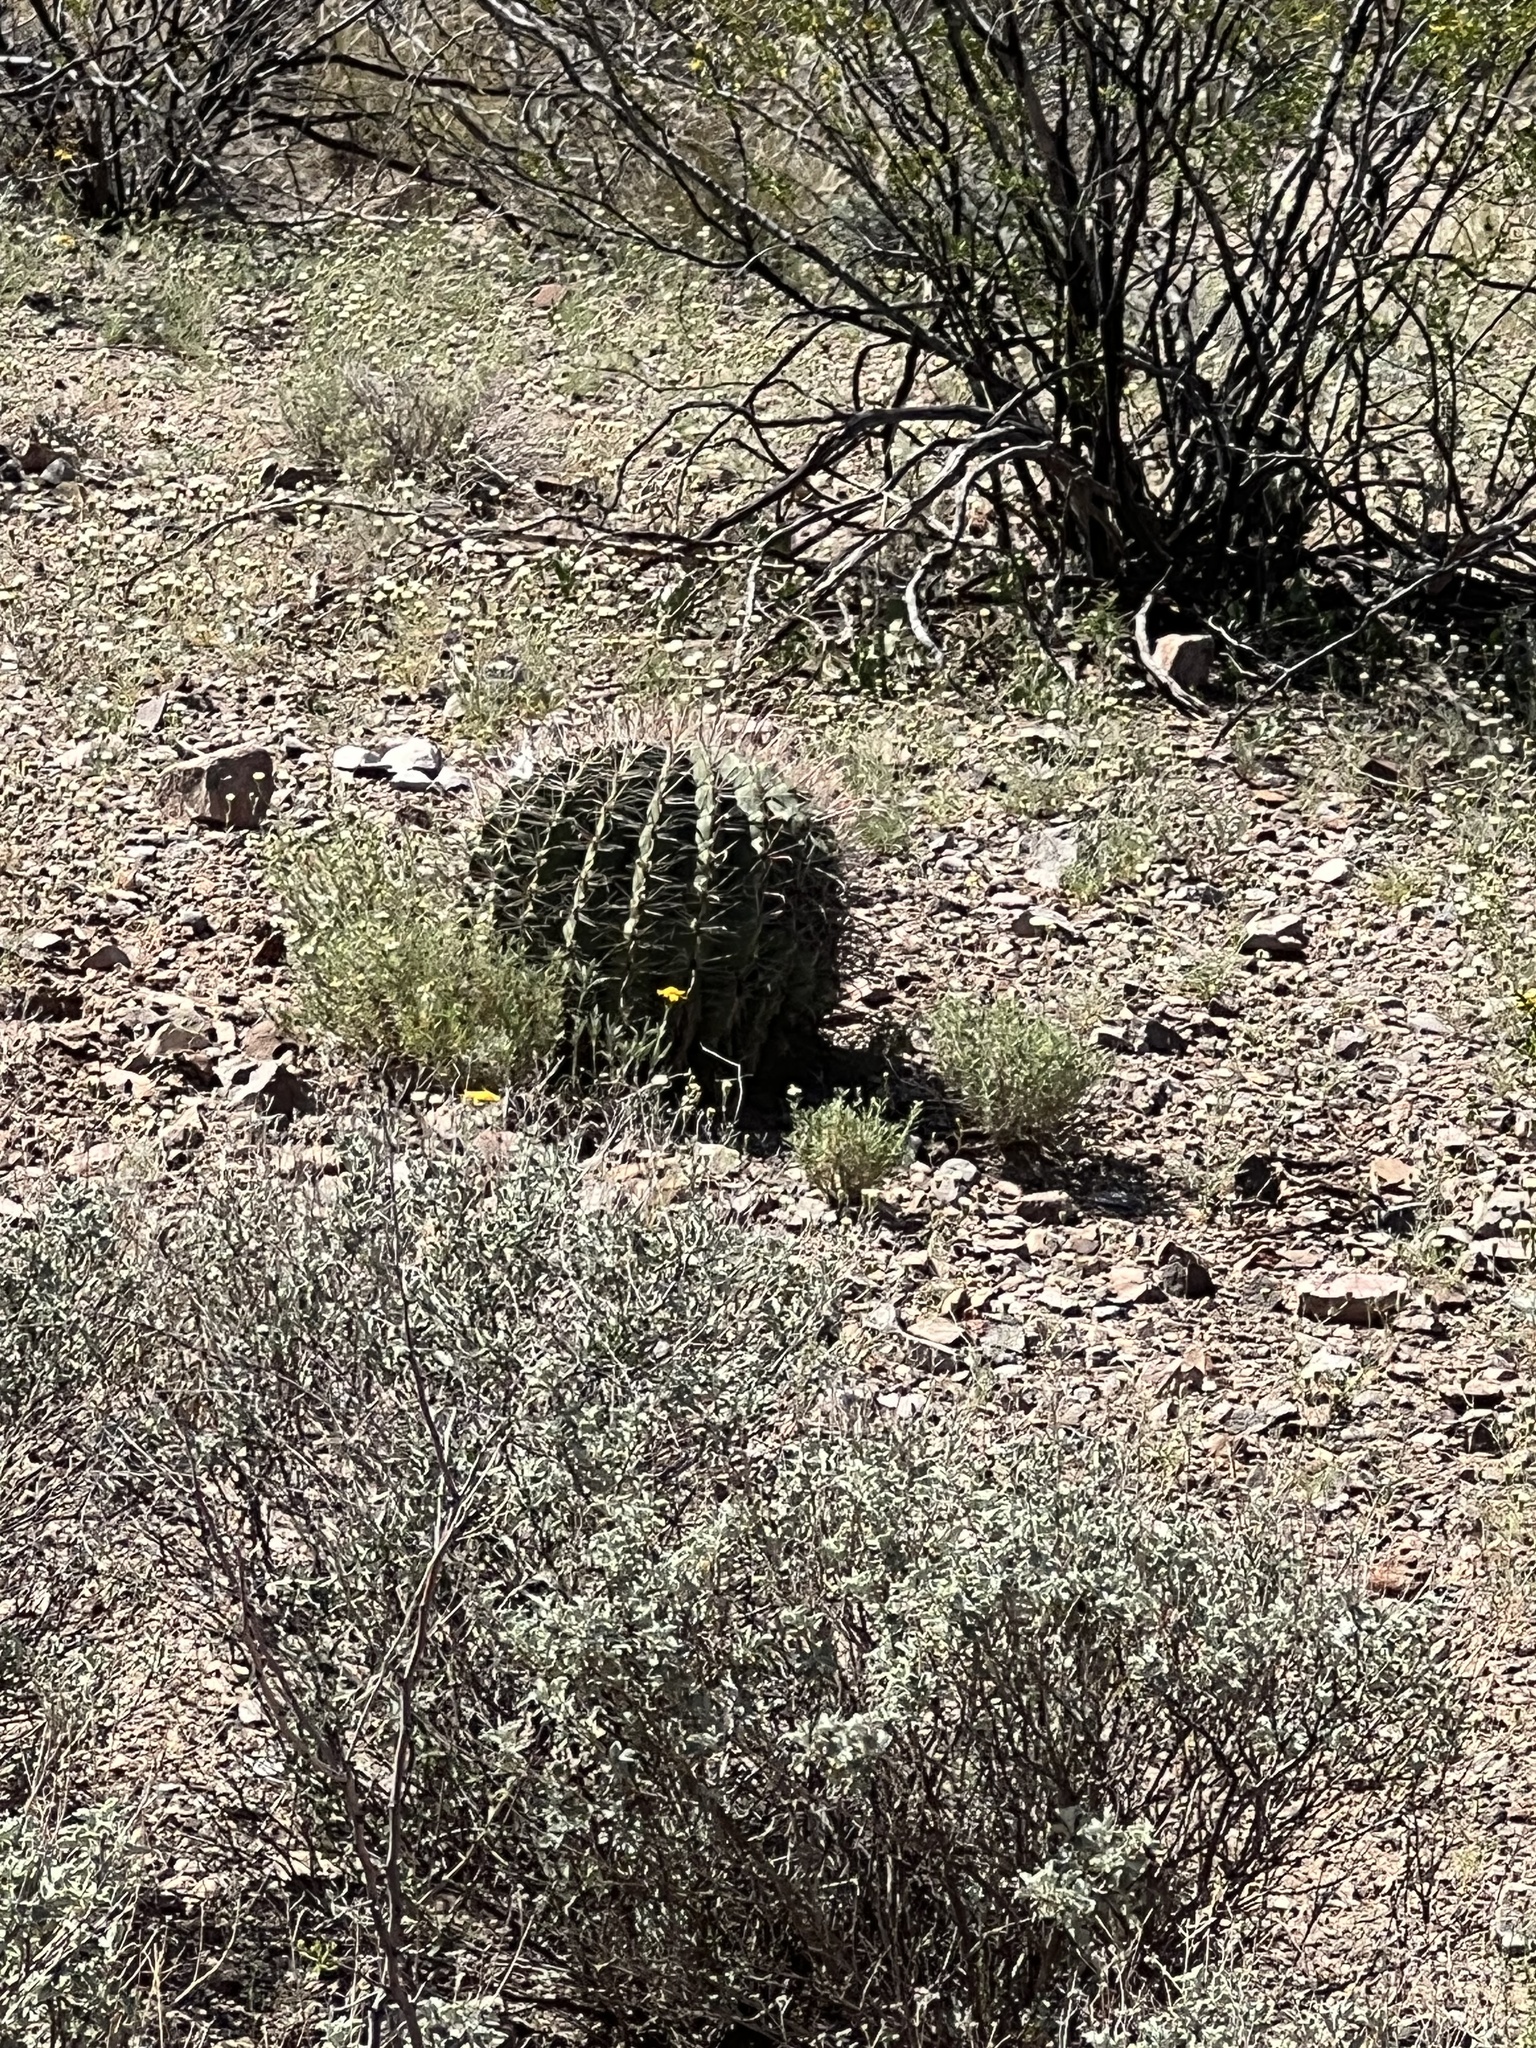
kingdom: Plantae
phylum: Tracheophyta
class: Magnoliopsida
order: Caryophyllales
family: Cactaceae
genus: Ferocactus
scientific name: Ferocactus wislizeni
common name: Candy barrel cactus
